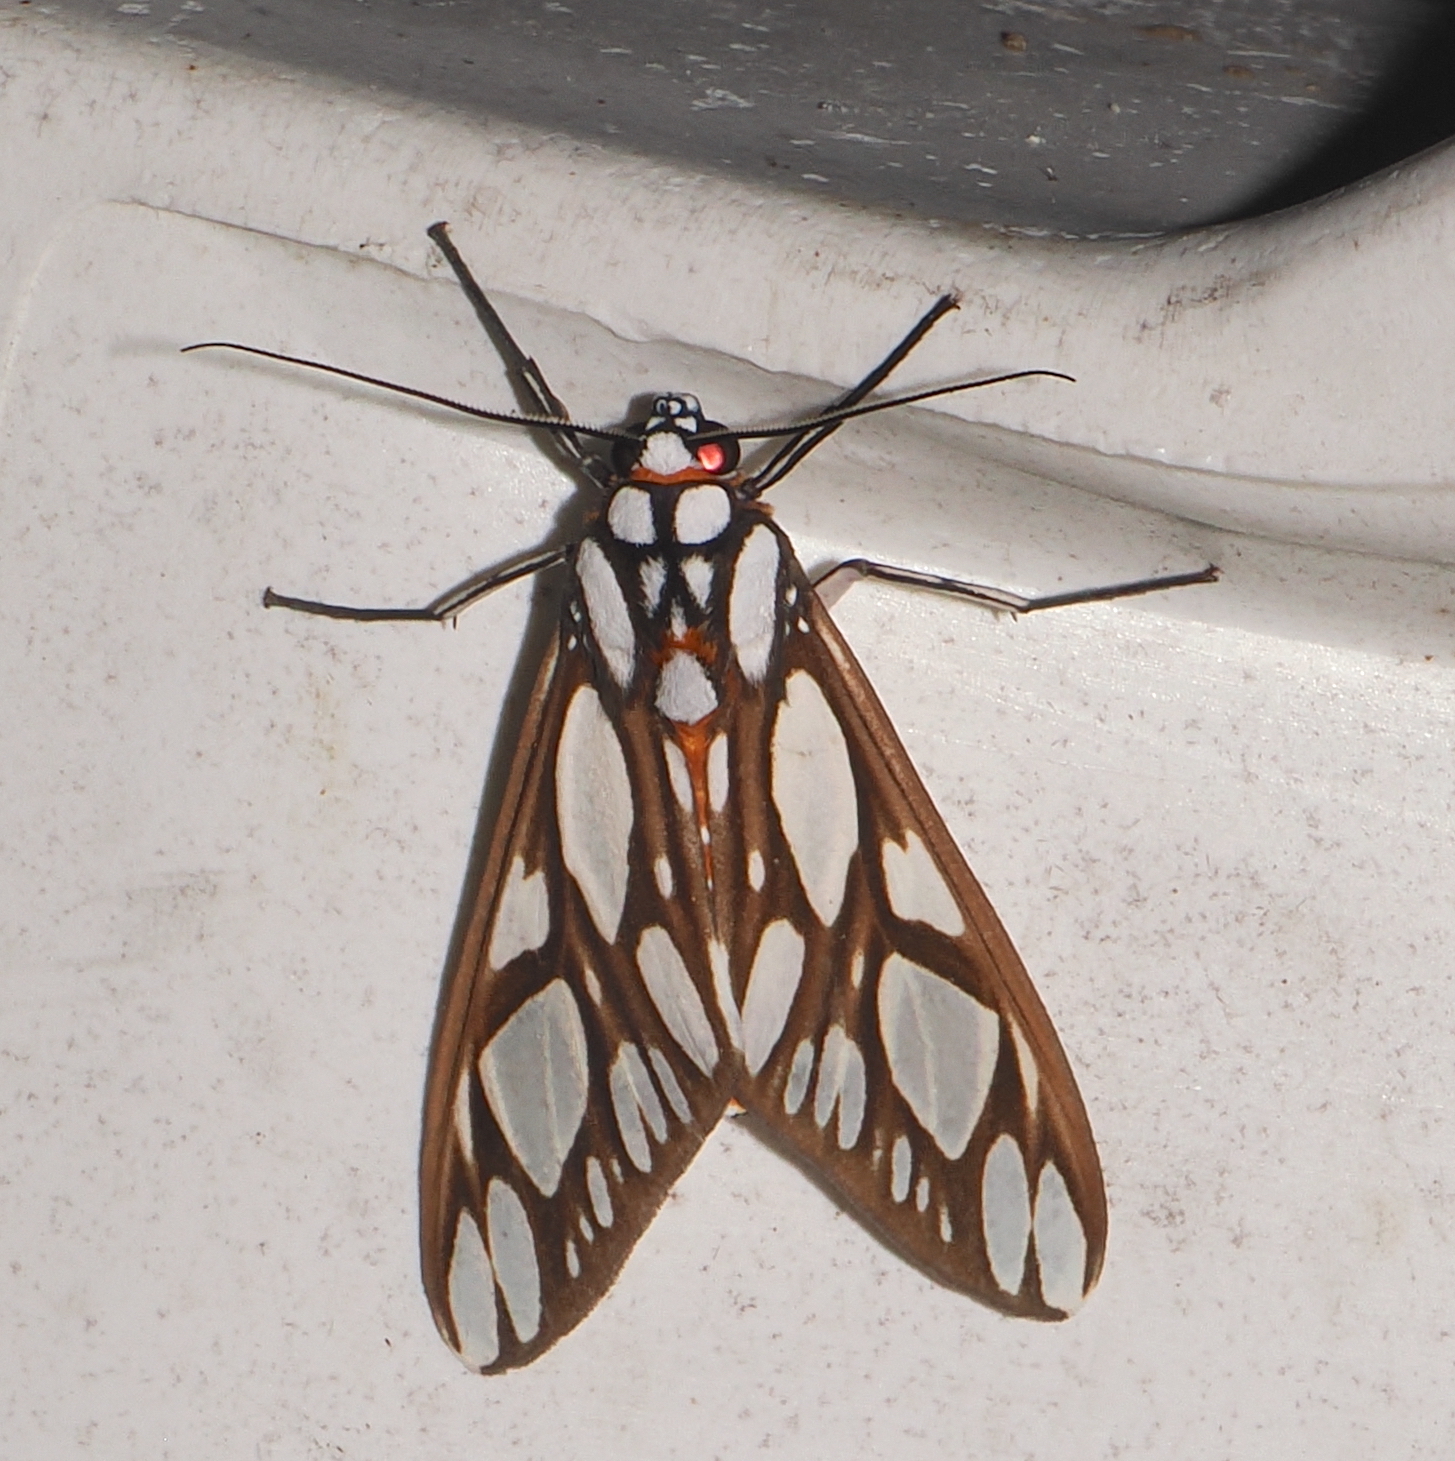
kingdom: Animalia
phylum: Arthropoda
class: Insecta
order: Lepidoptera
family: Erebidae
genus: Robinsonia
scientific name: Robinsonia multimaculata
